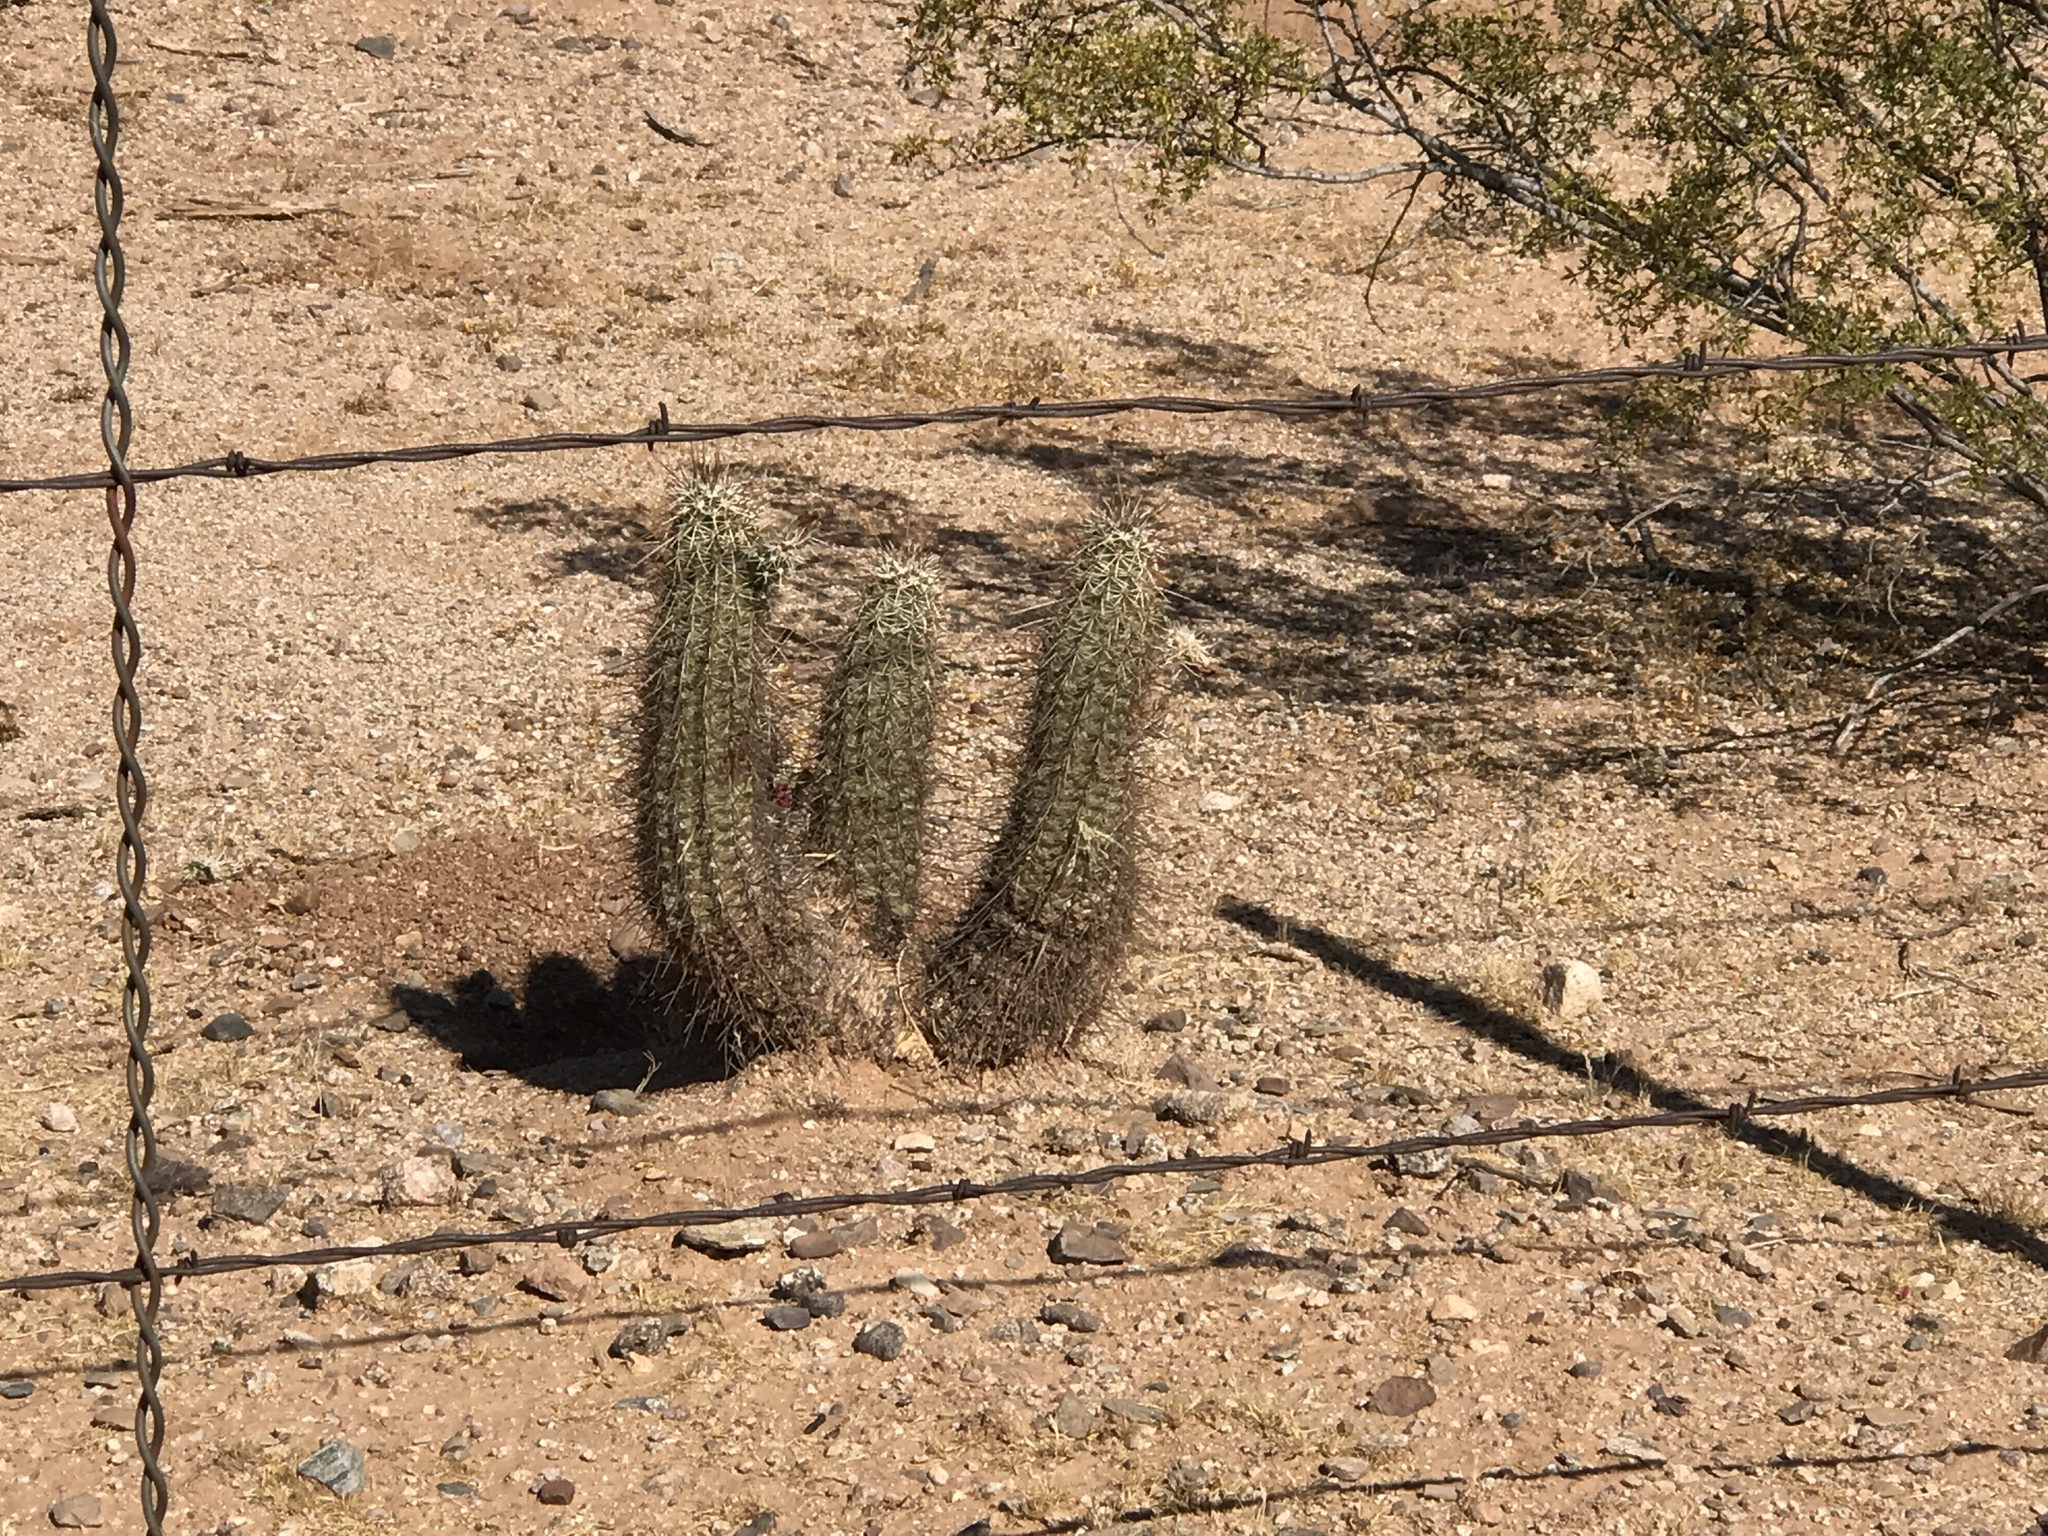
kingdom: Plantae
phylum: Tracheophyta
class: Magnoliopsida
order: Caryophyllales
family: Cactaceae
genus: Echinocereus
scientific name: Echinocereus fasciculatus
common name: Bundle hedgehog
